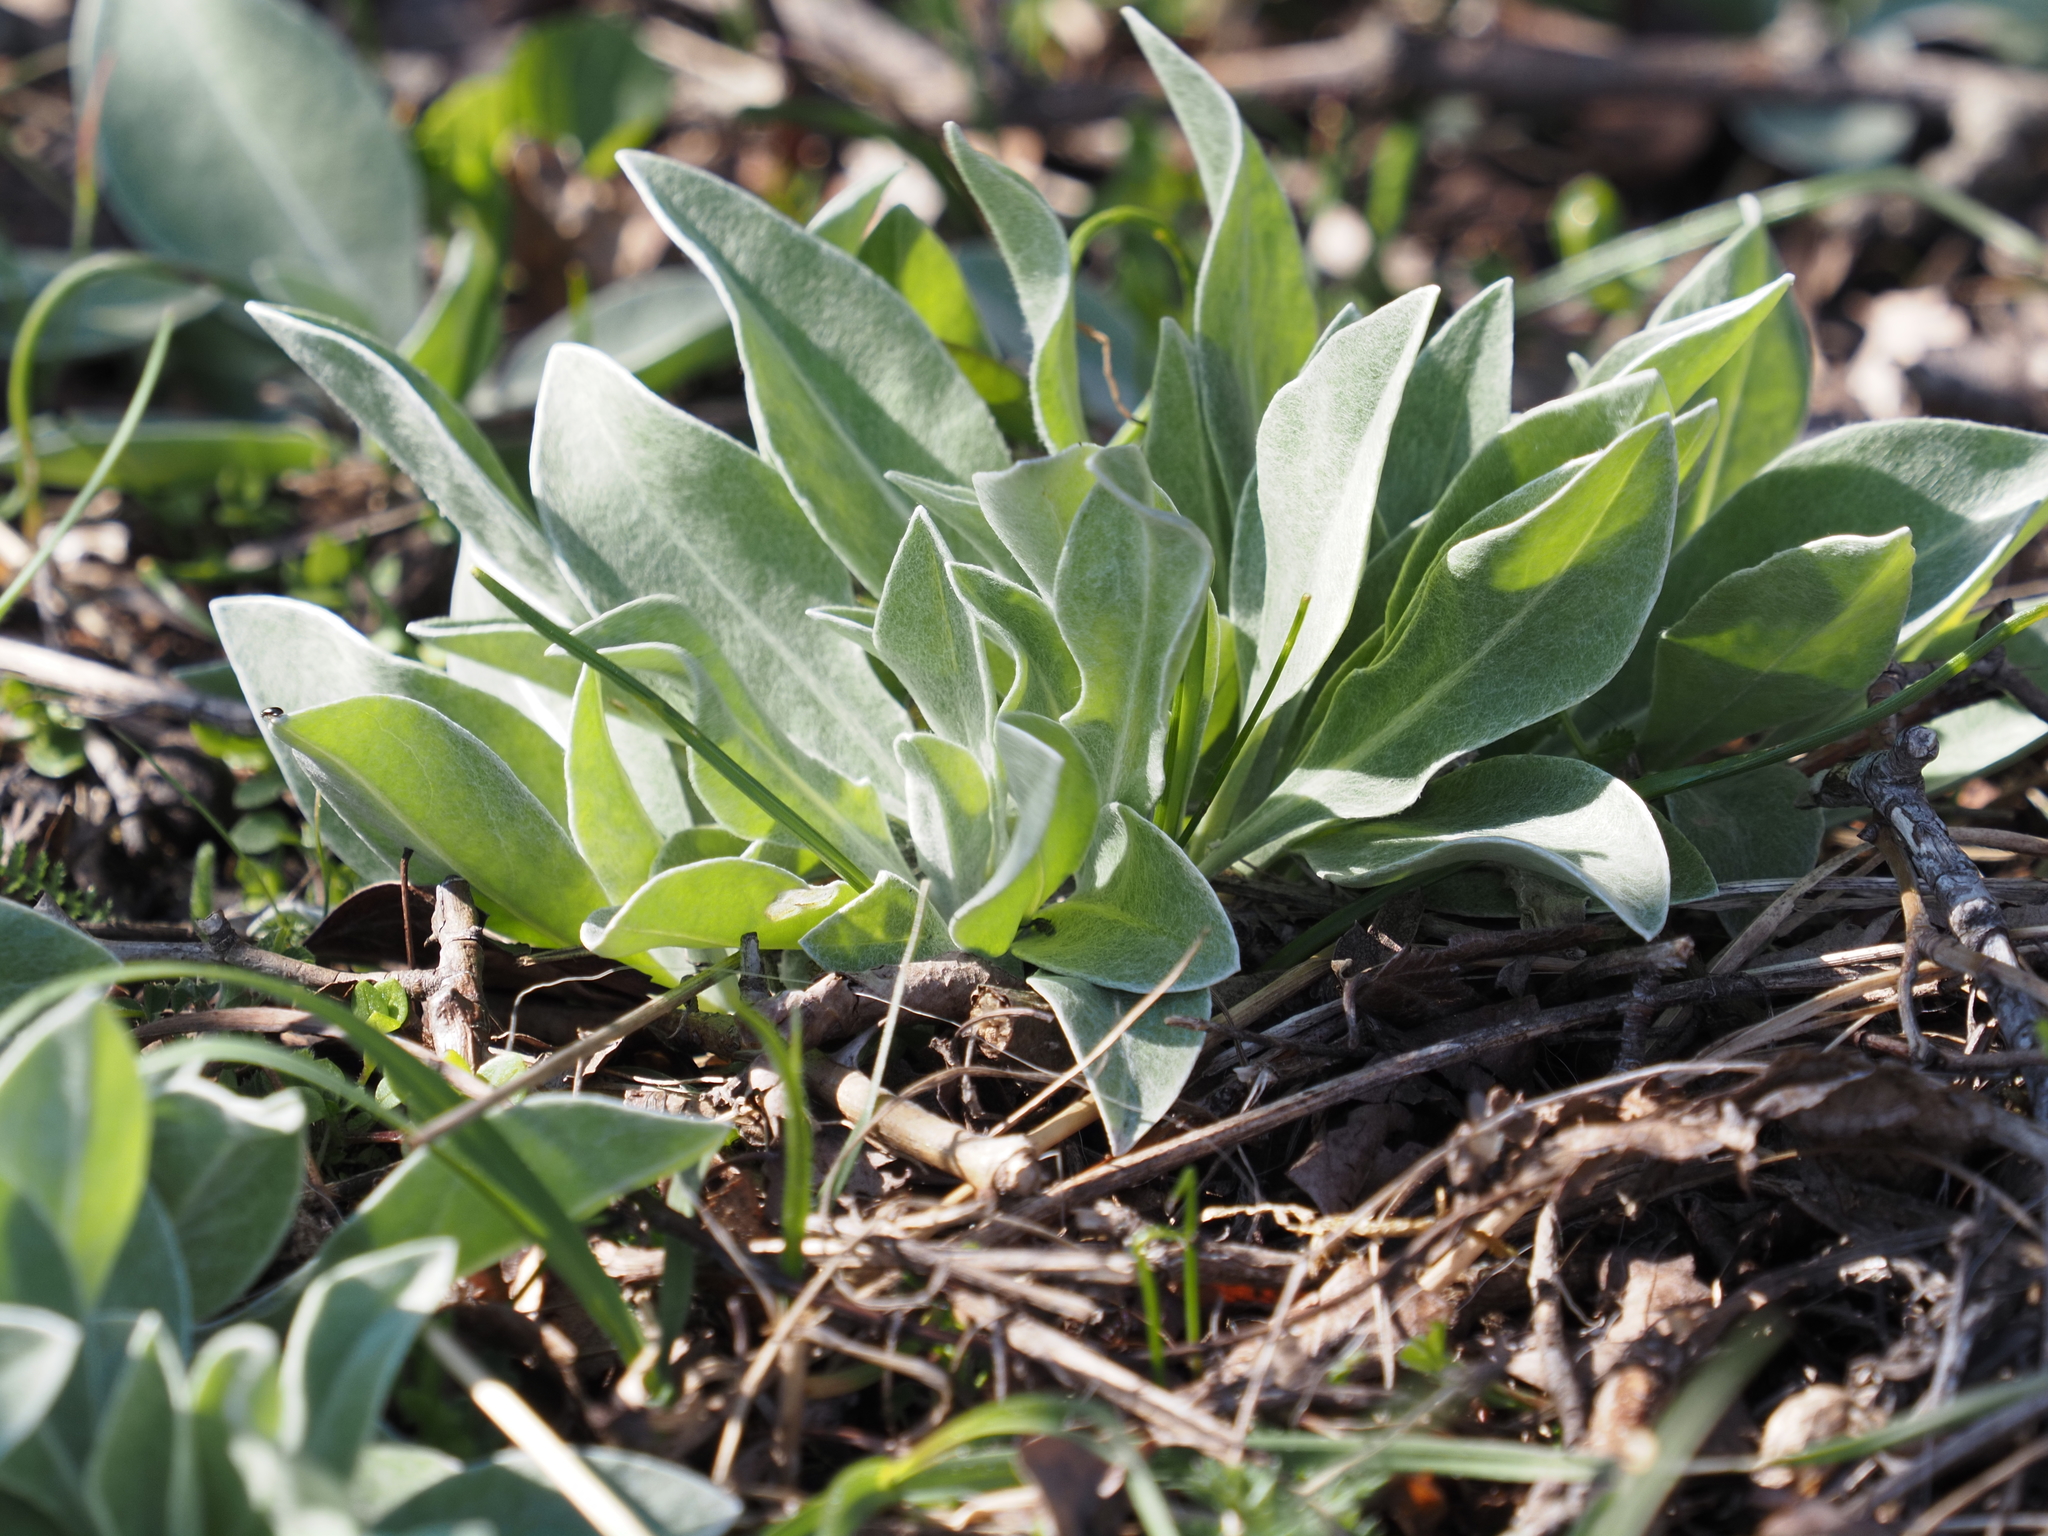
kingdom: Plantae
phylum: Tracheophyta
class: Magnoliopsida
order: Asterales
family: Asteraceae
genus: Centaurea
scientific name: Centaurea triumfettii
